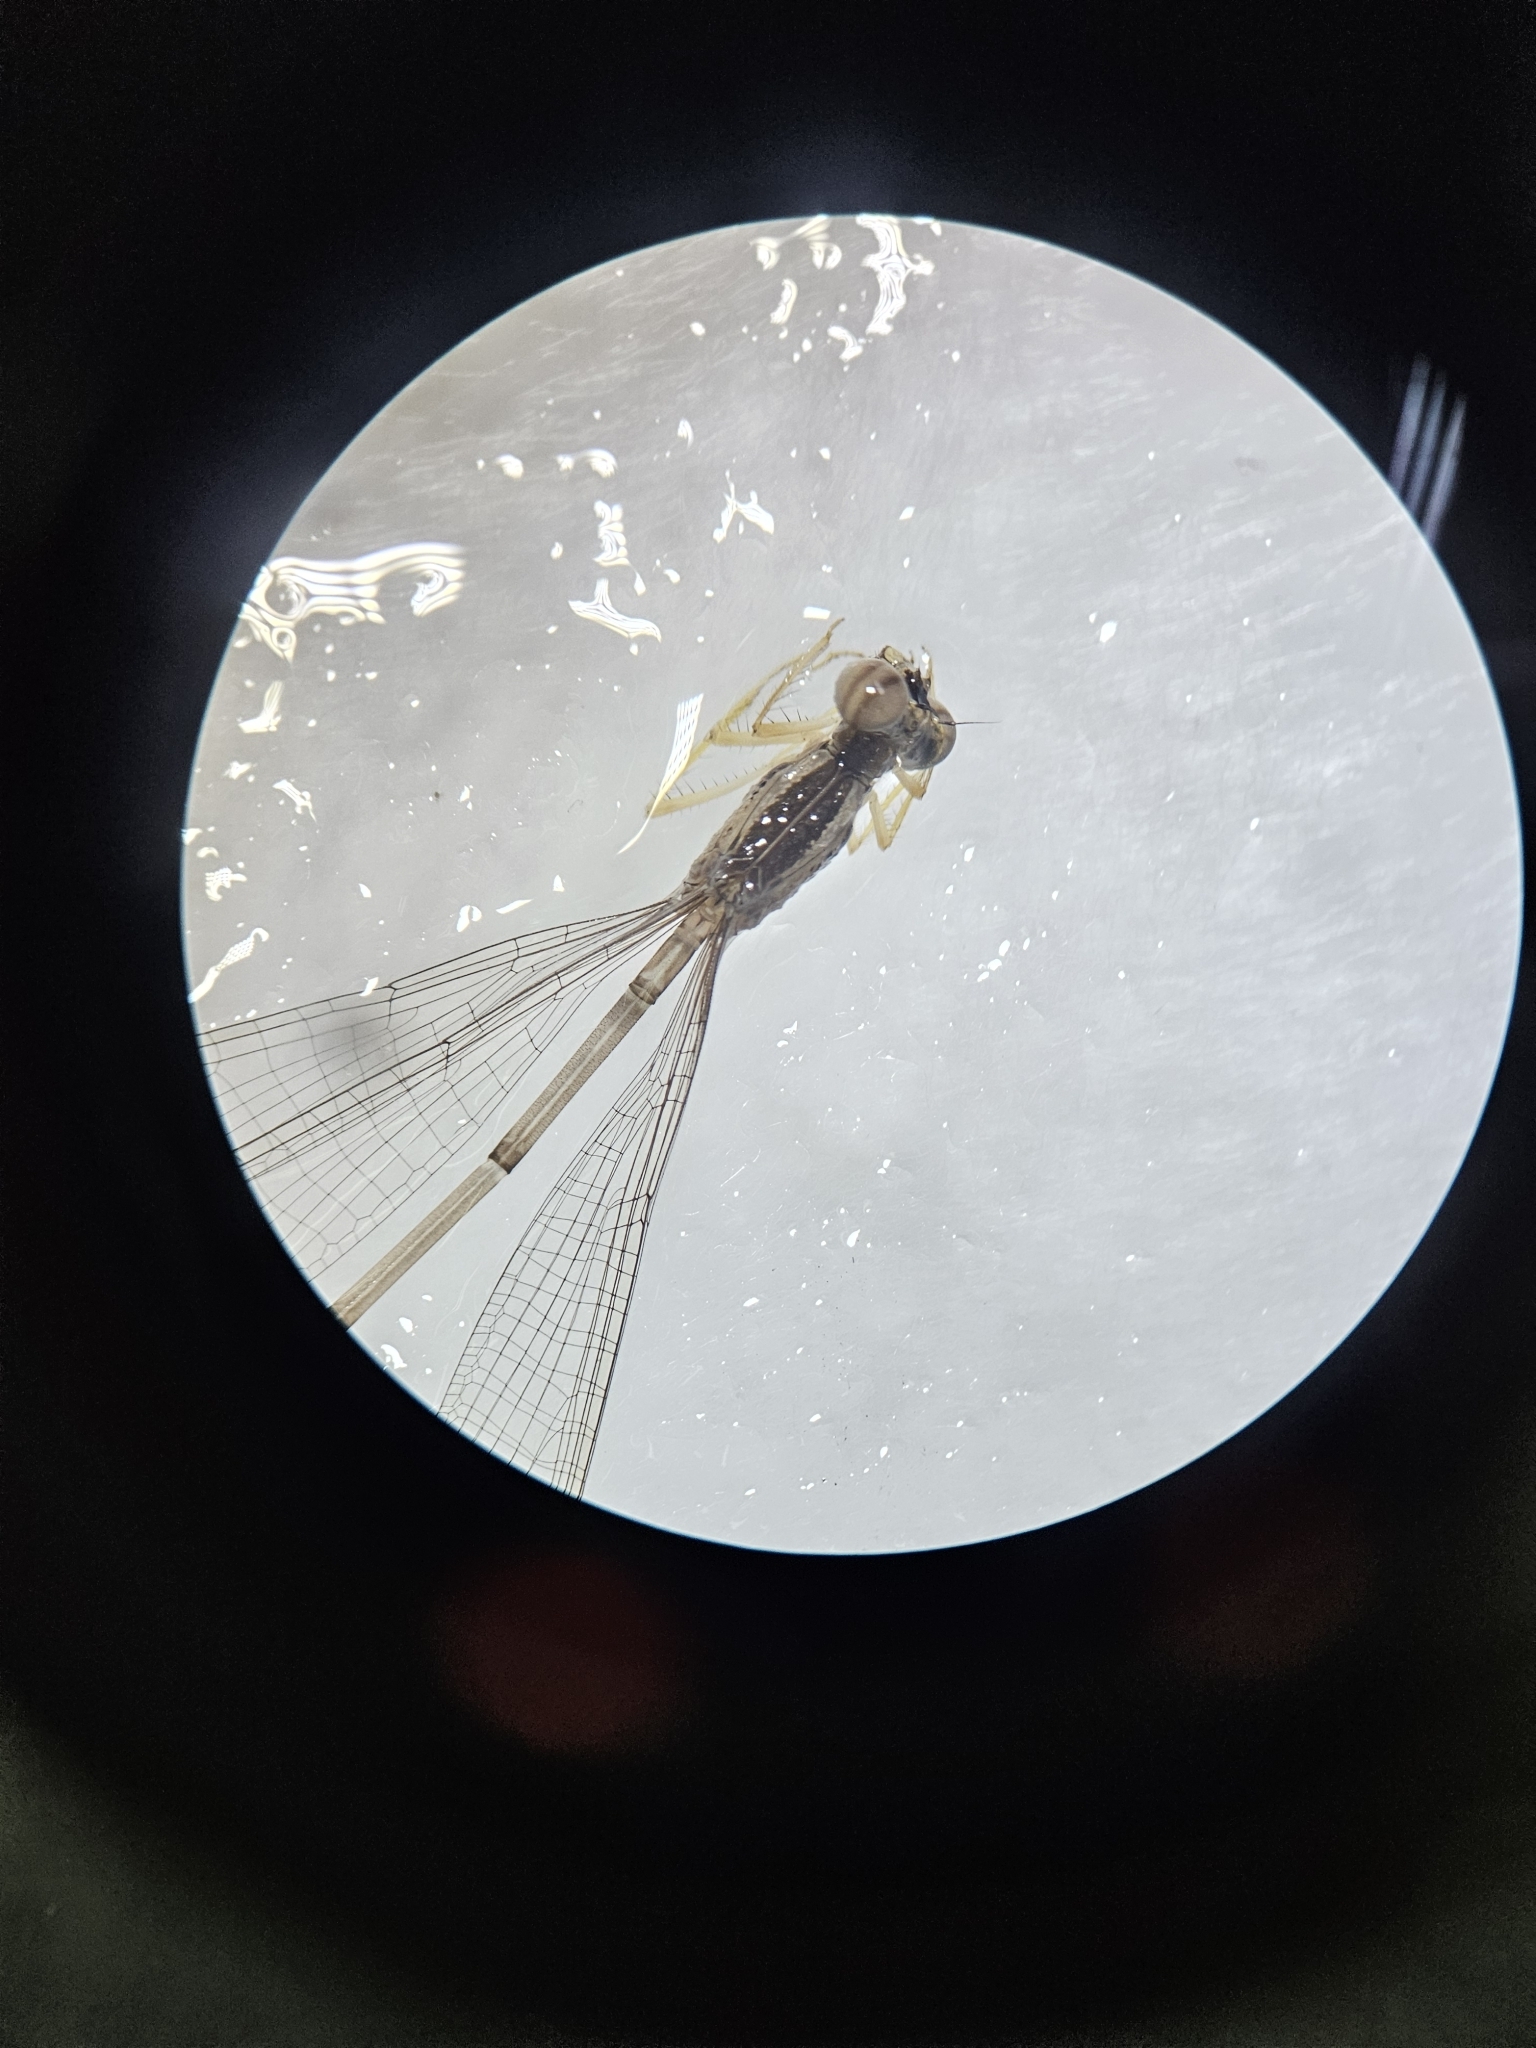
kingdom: Animalia
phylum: Arthropoda
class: Insecta
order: Odonata
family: Platycnemididae
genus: Copera
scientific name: Copera marginipes
